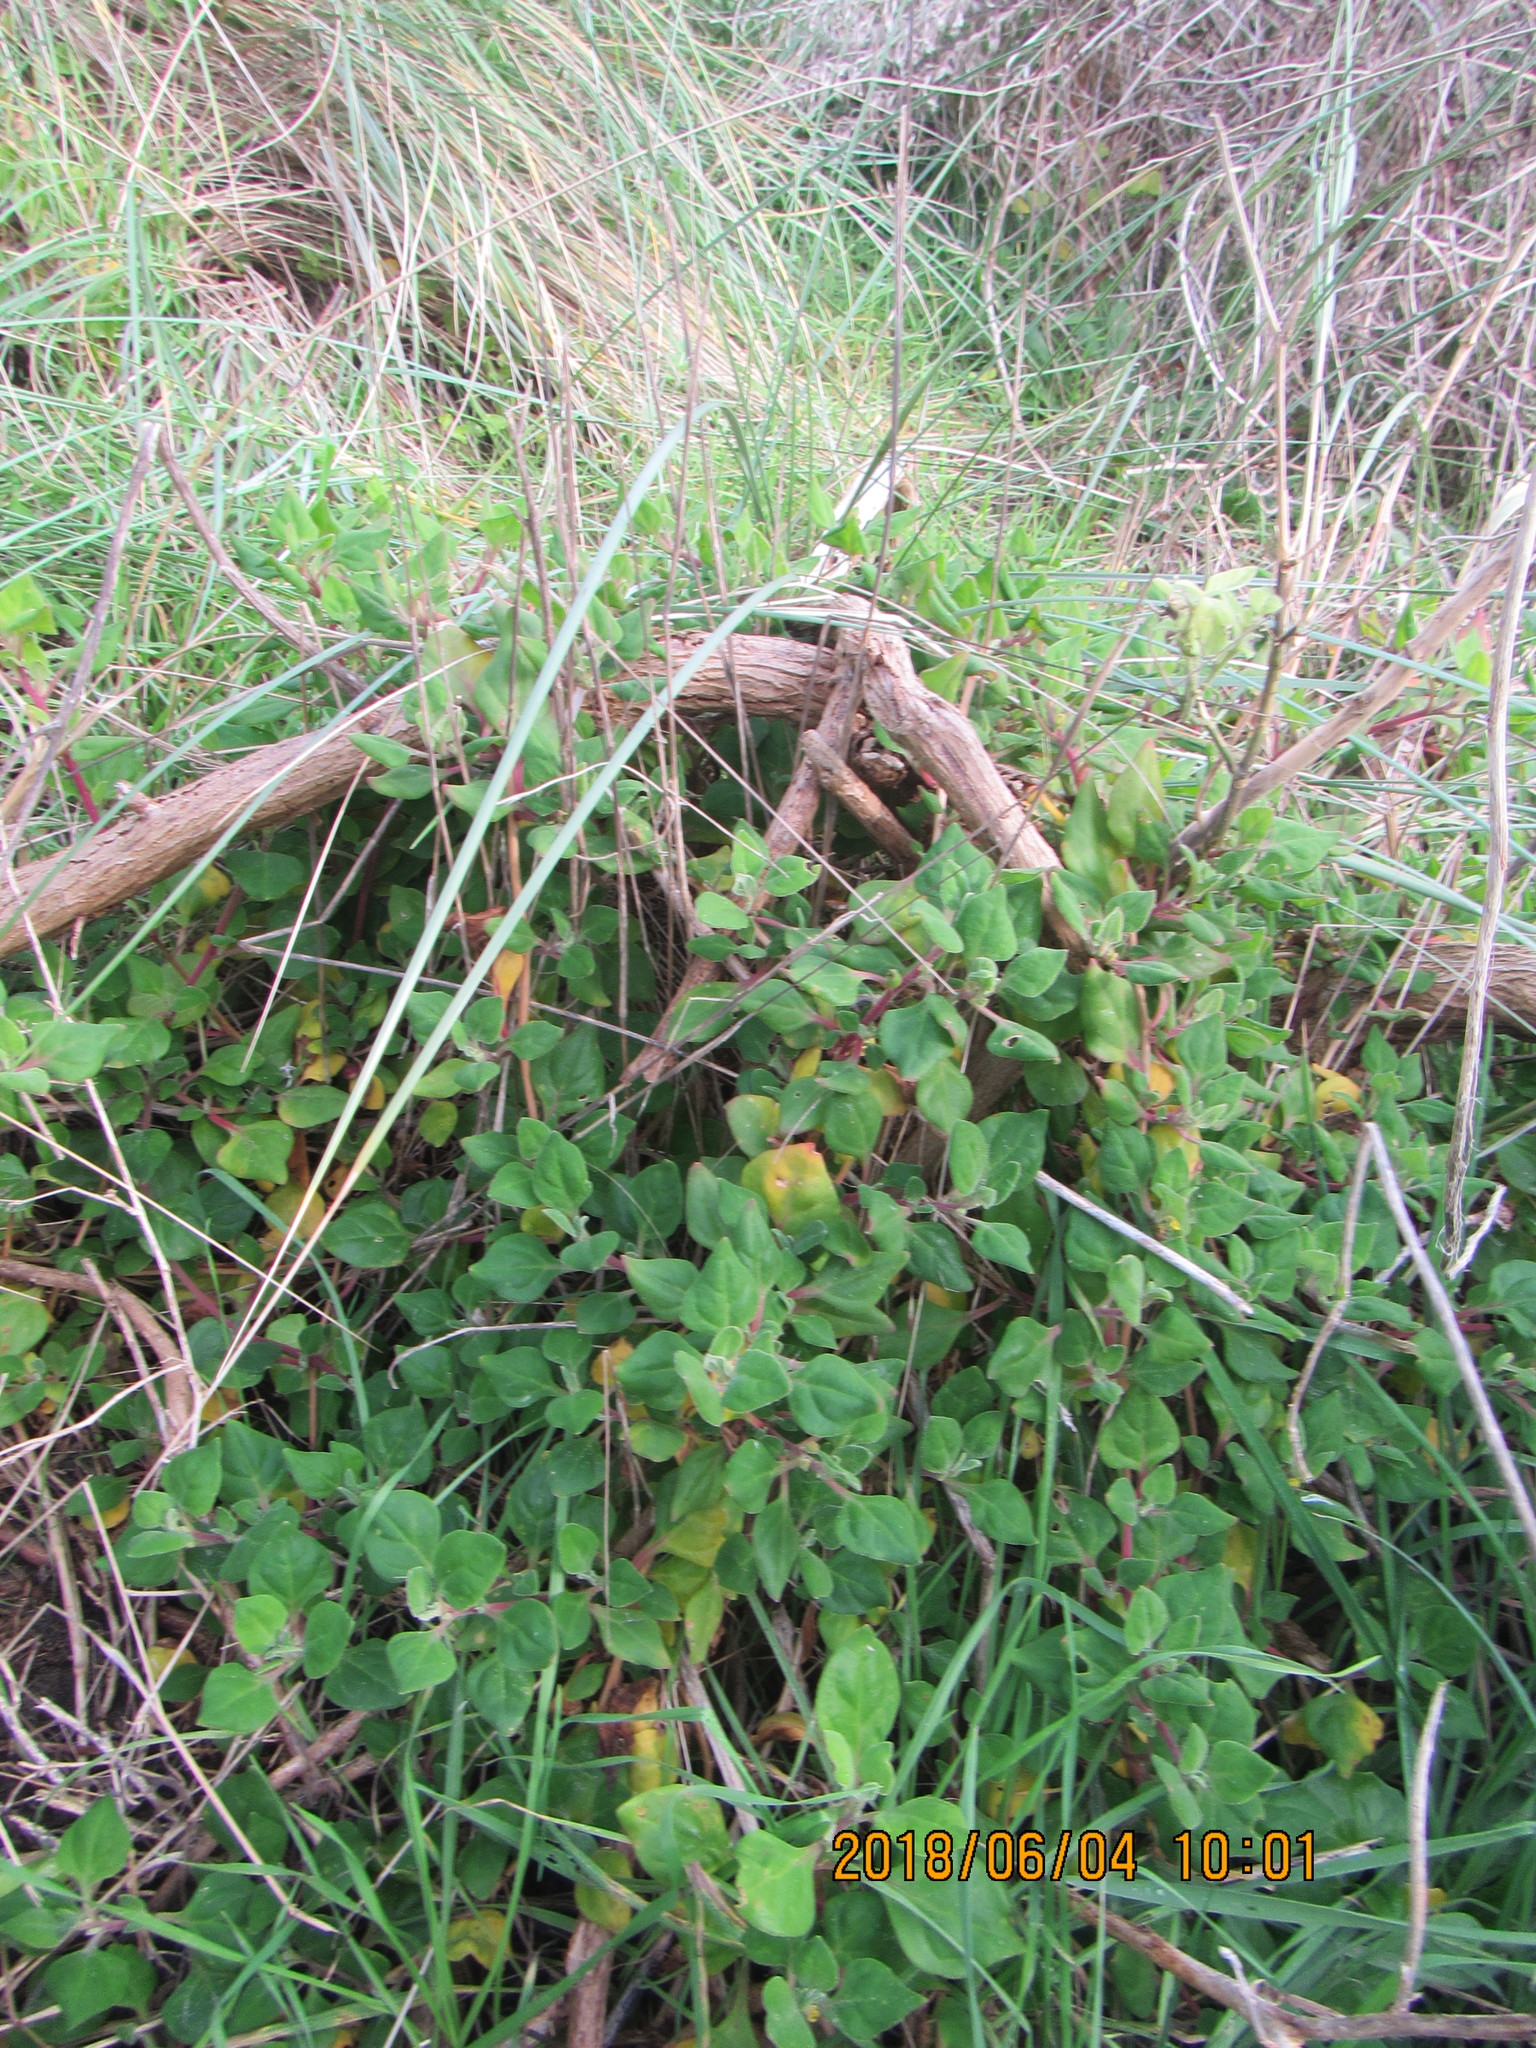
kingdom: Plantae
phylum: Tracheophyta
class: Magnoliopsida
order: Caryophyllales
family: Aizoaceae
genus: Tetragonia
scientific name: Tetragonia implexicoma
